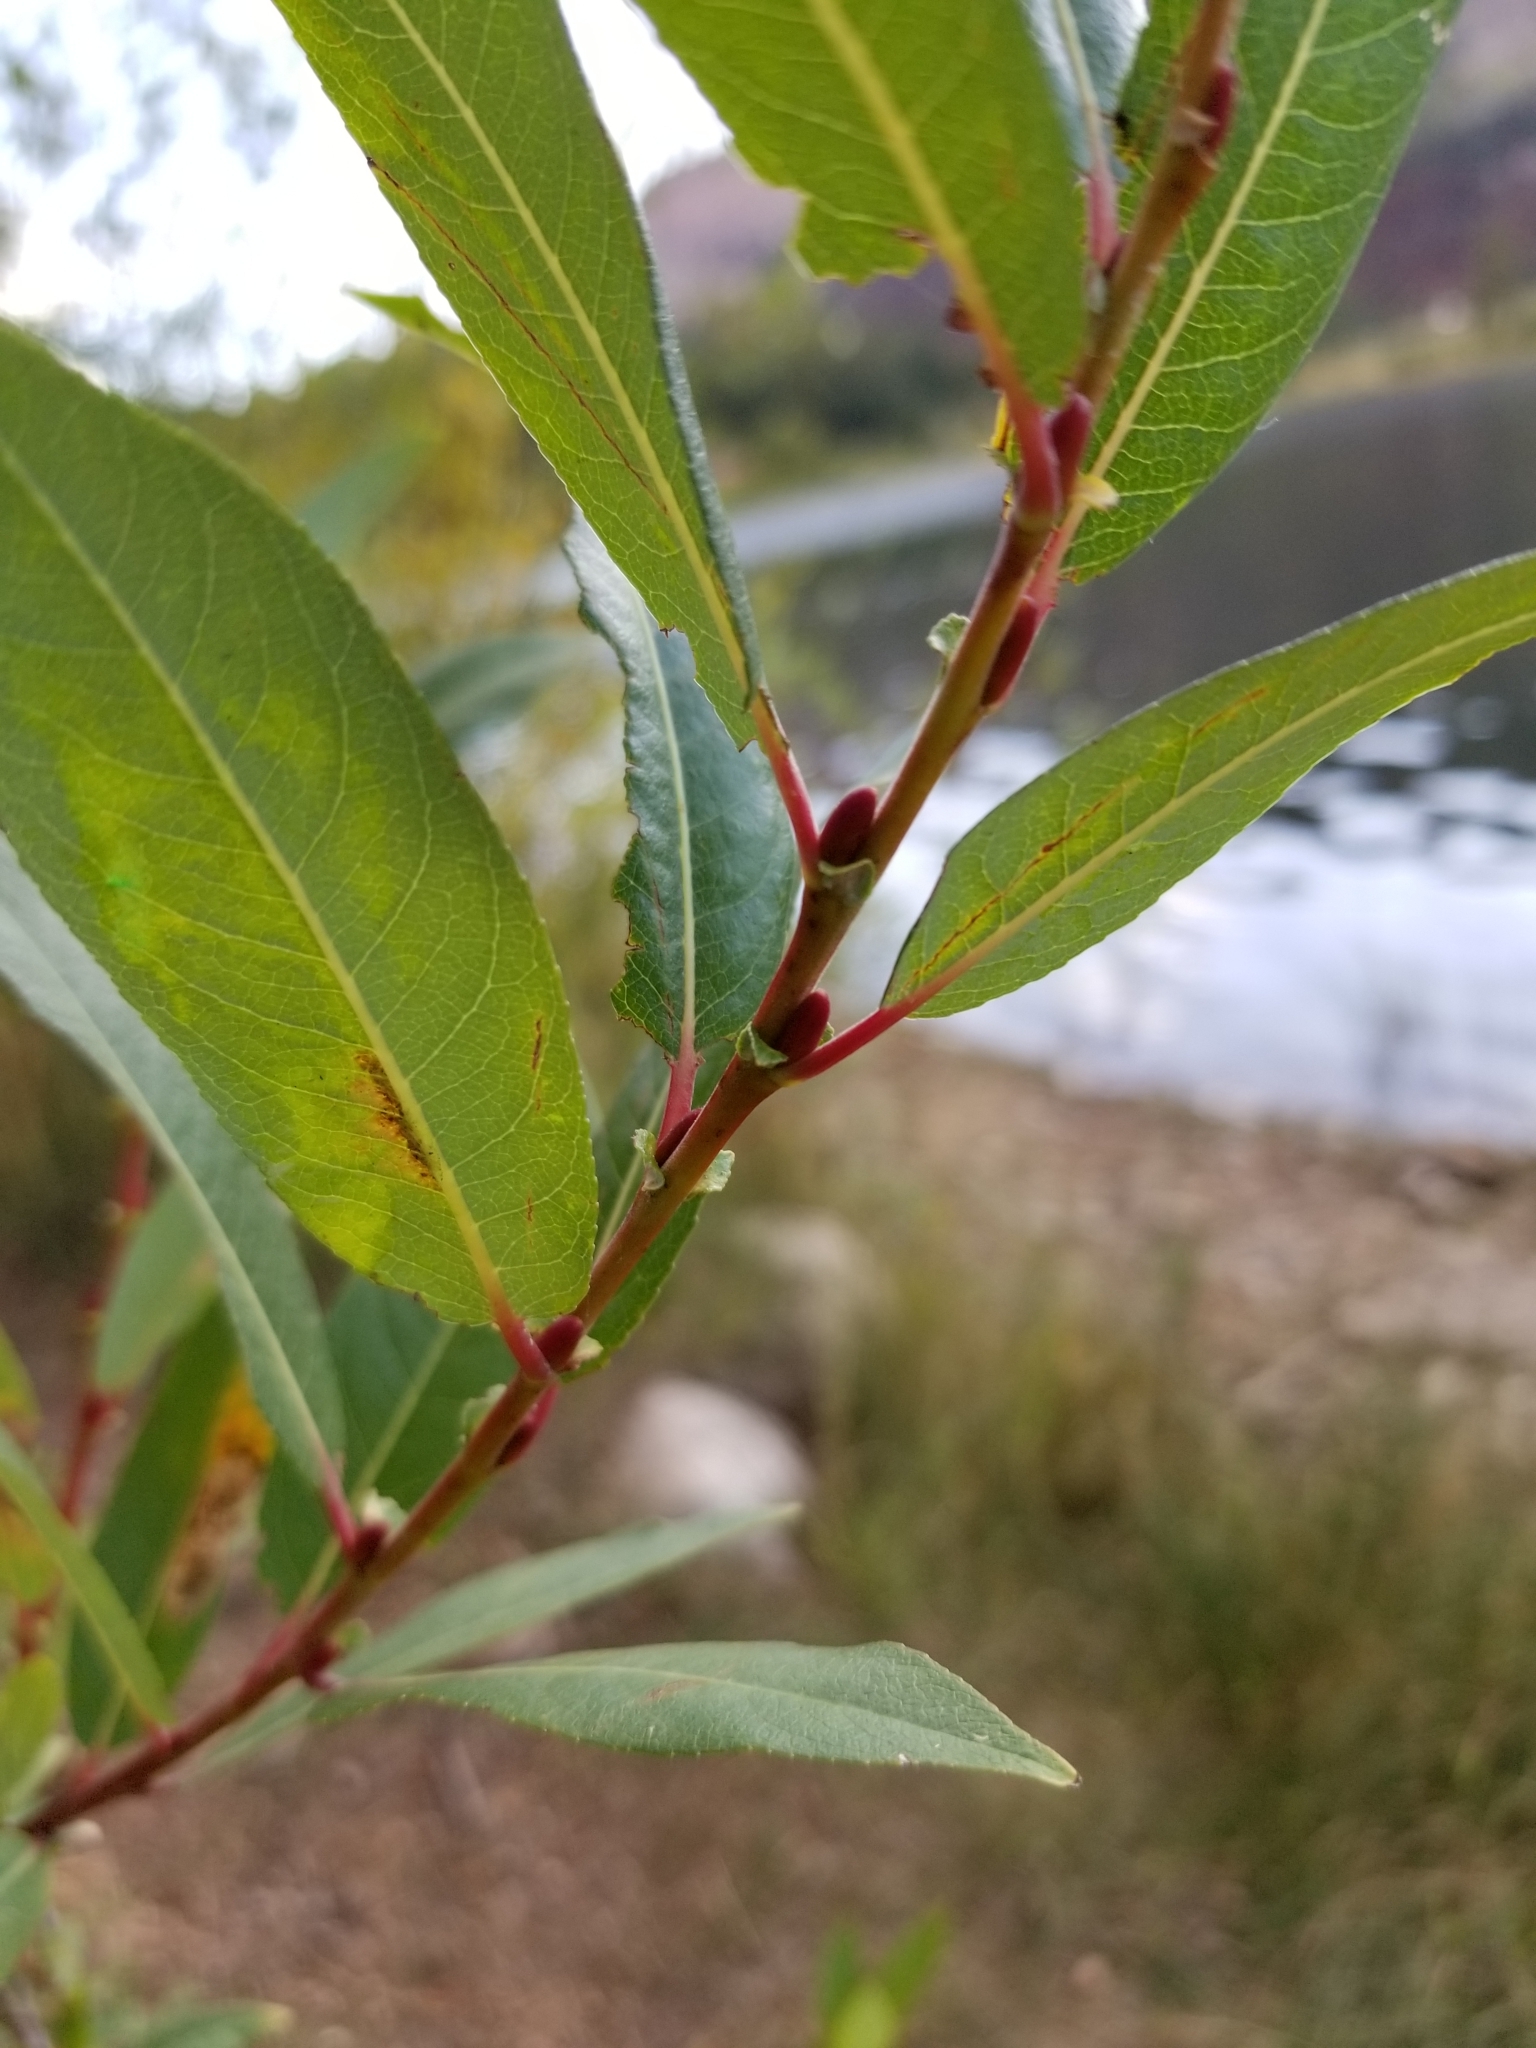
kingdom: Plantae
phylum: Tracheophyta
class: Magnoliopsida
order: Malpighiales
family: Salicaceae
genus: Salix
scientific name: Salix laevigata
